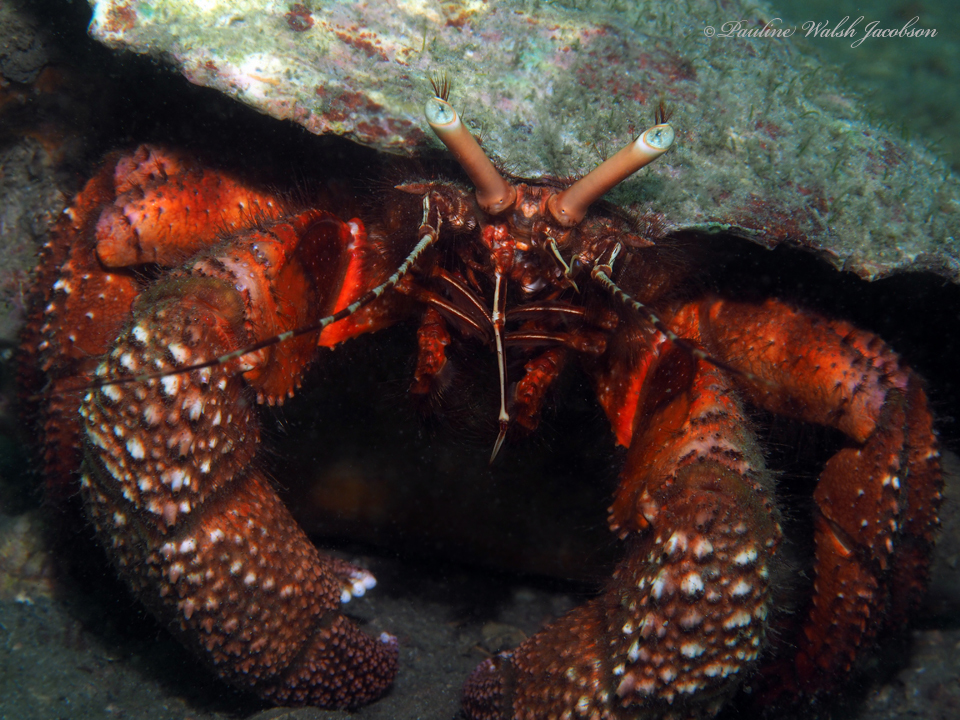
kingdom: Animalia
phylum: Arthropoda
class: Malacostraca
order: Decapoda
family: Diogenidae
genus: Petrochirus
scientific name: Petrochirus diogenes
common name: Giant hermit crab
